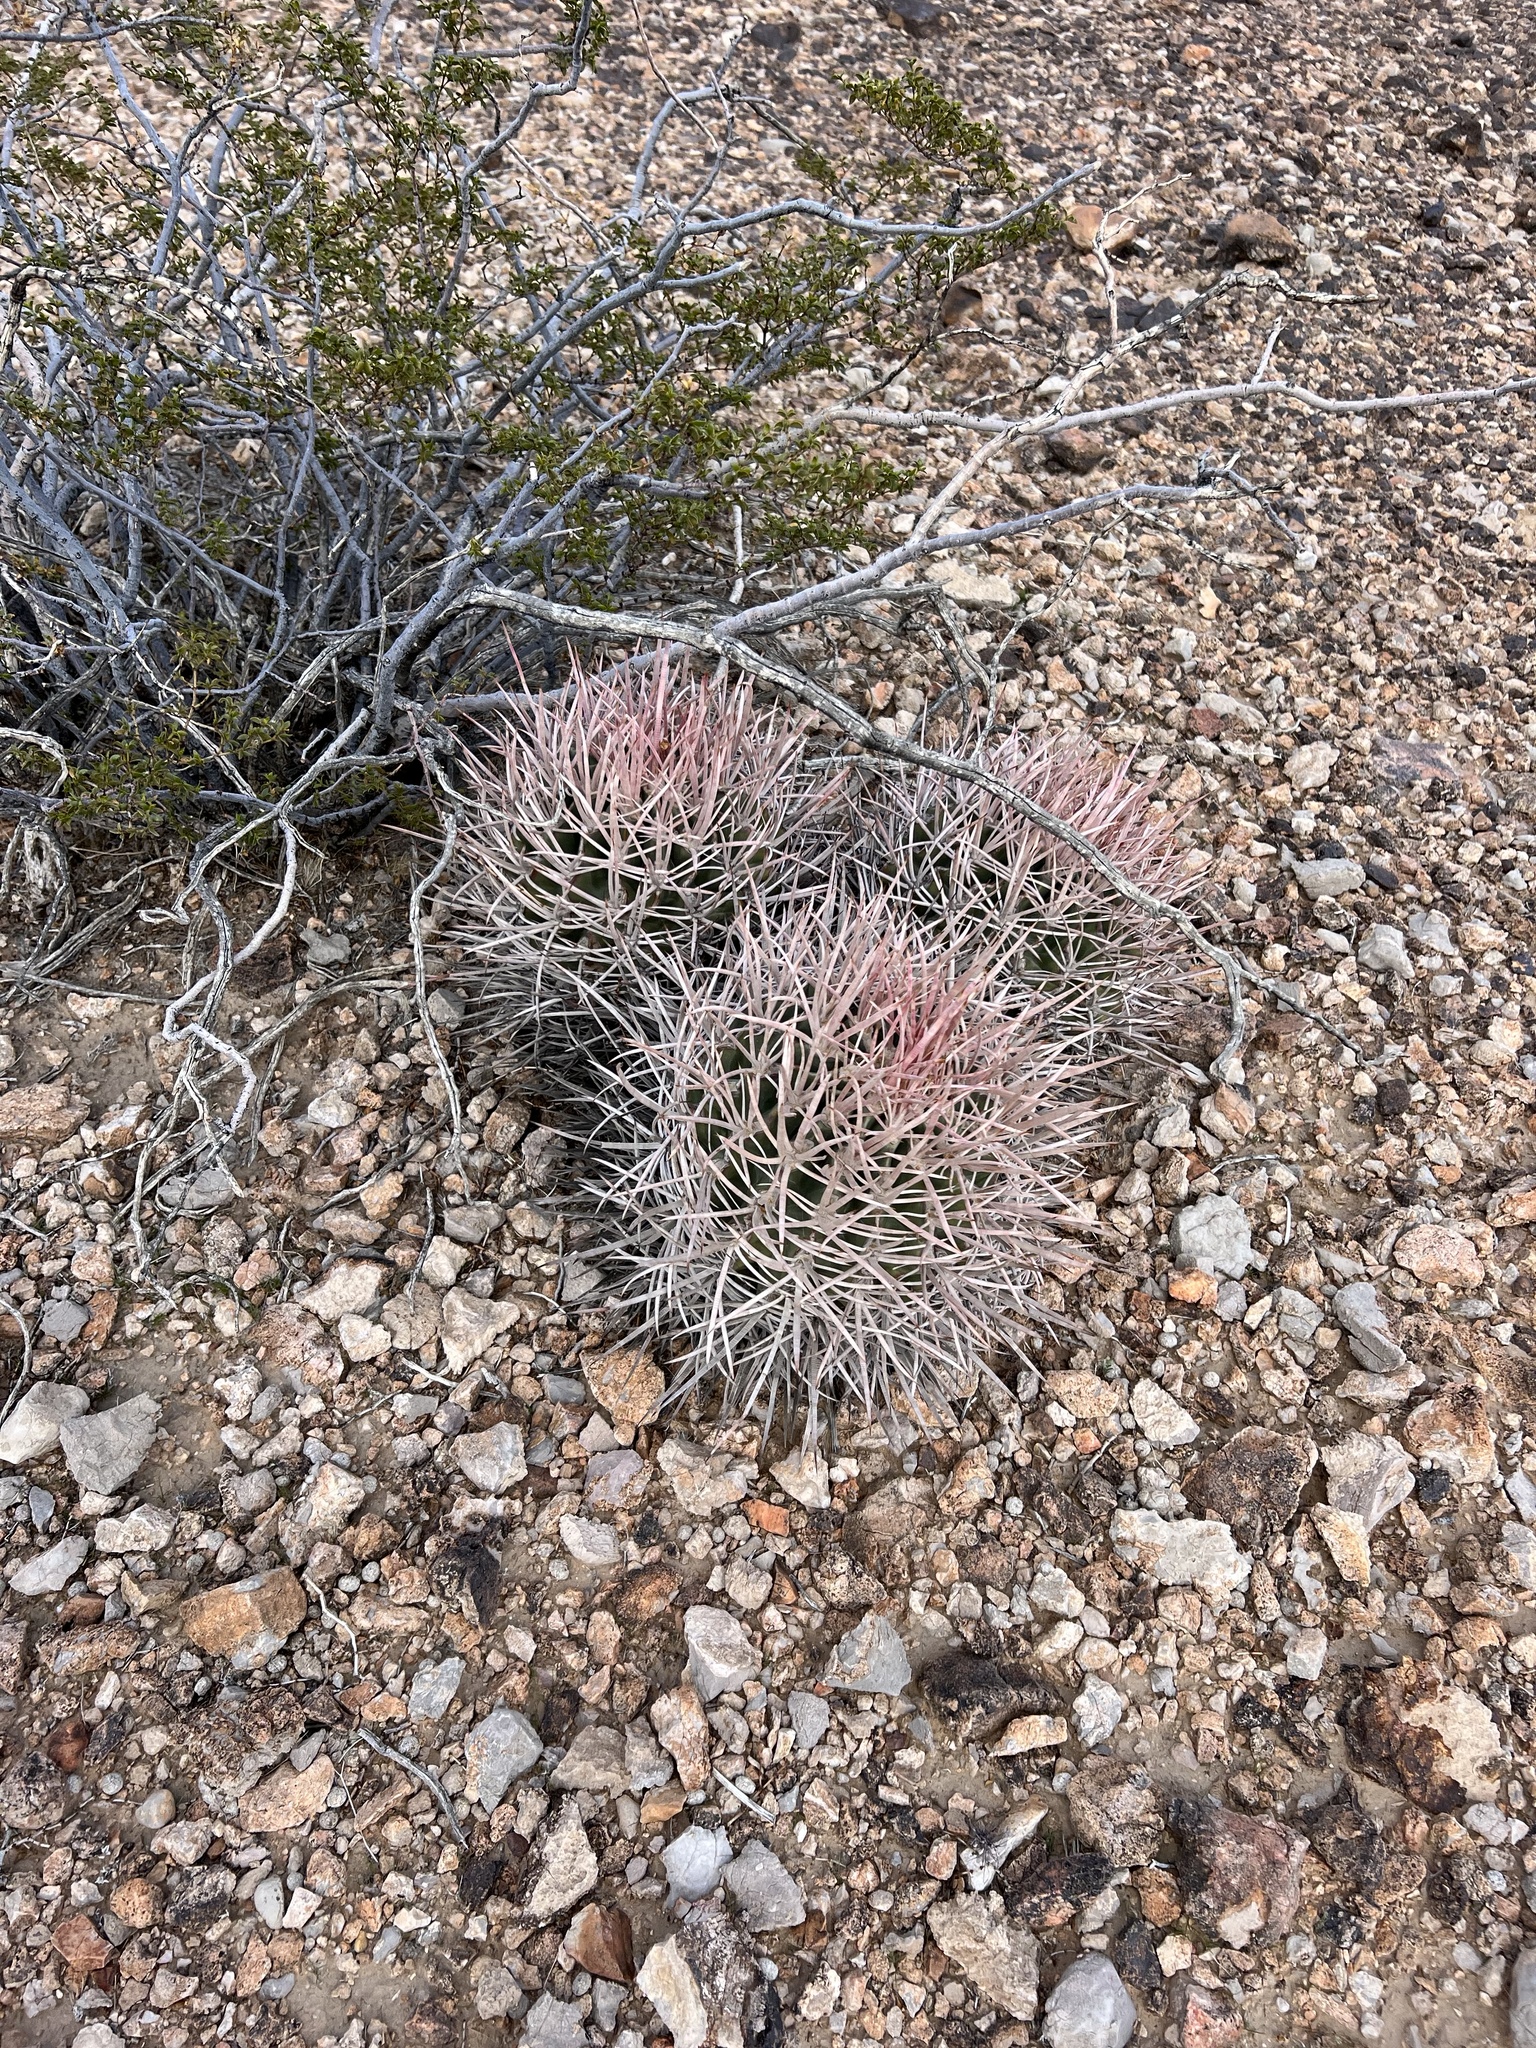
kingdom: Plantae
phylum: Tracheophyta
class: Magnoliopsida
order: Caryophyllales
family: Cactaceae
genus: Echinocactus
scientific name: Echinocactus polycephalus
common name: Cottontop cactus
